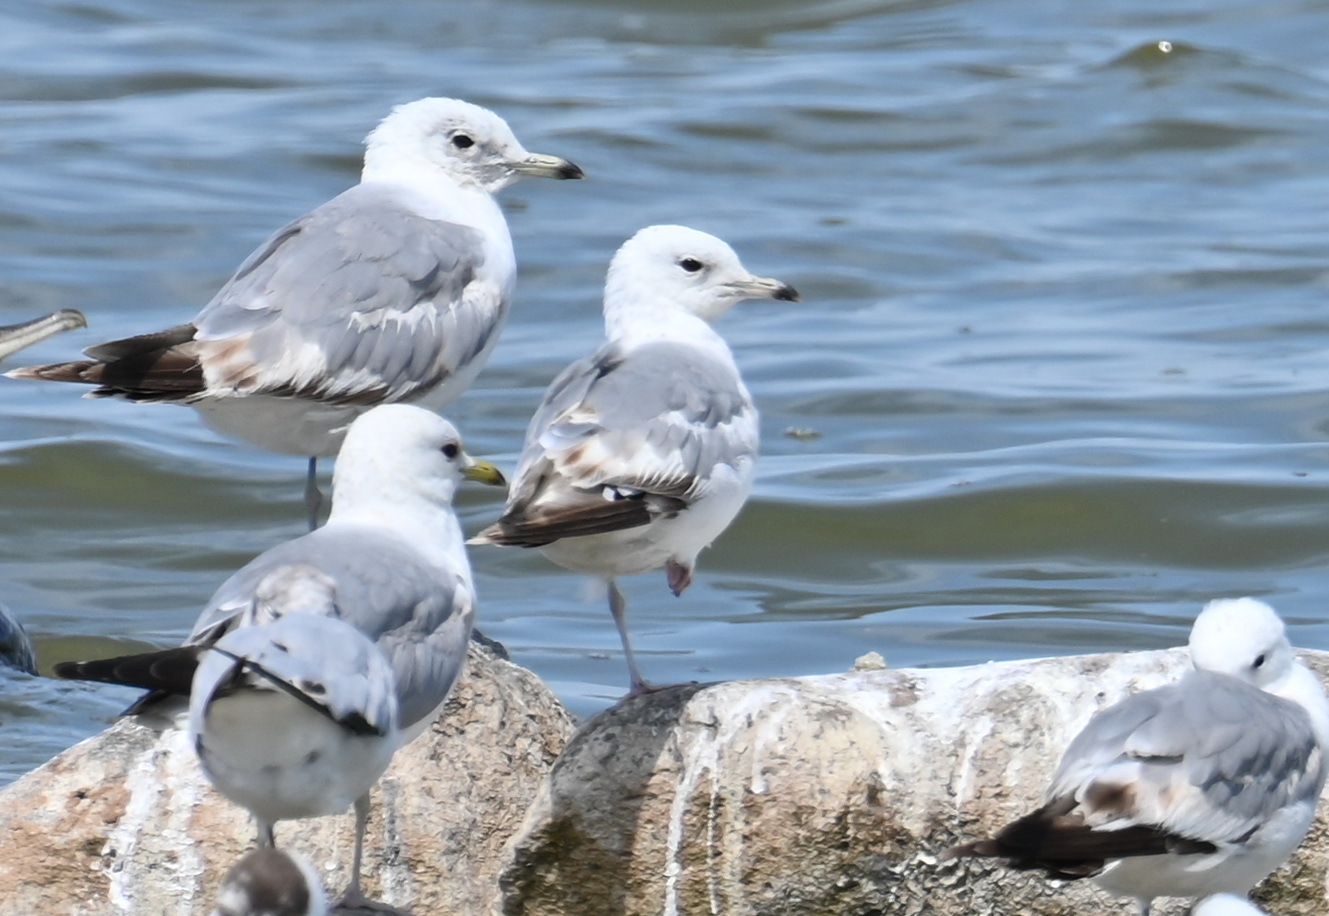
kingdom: Animalia
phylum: Chordata
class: Aves
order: Charadriiformes
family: Laridae
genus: Larus
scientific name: Larus canus
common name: Mew gull
